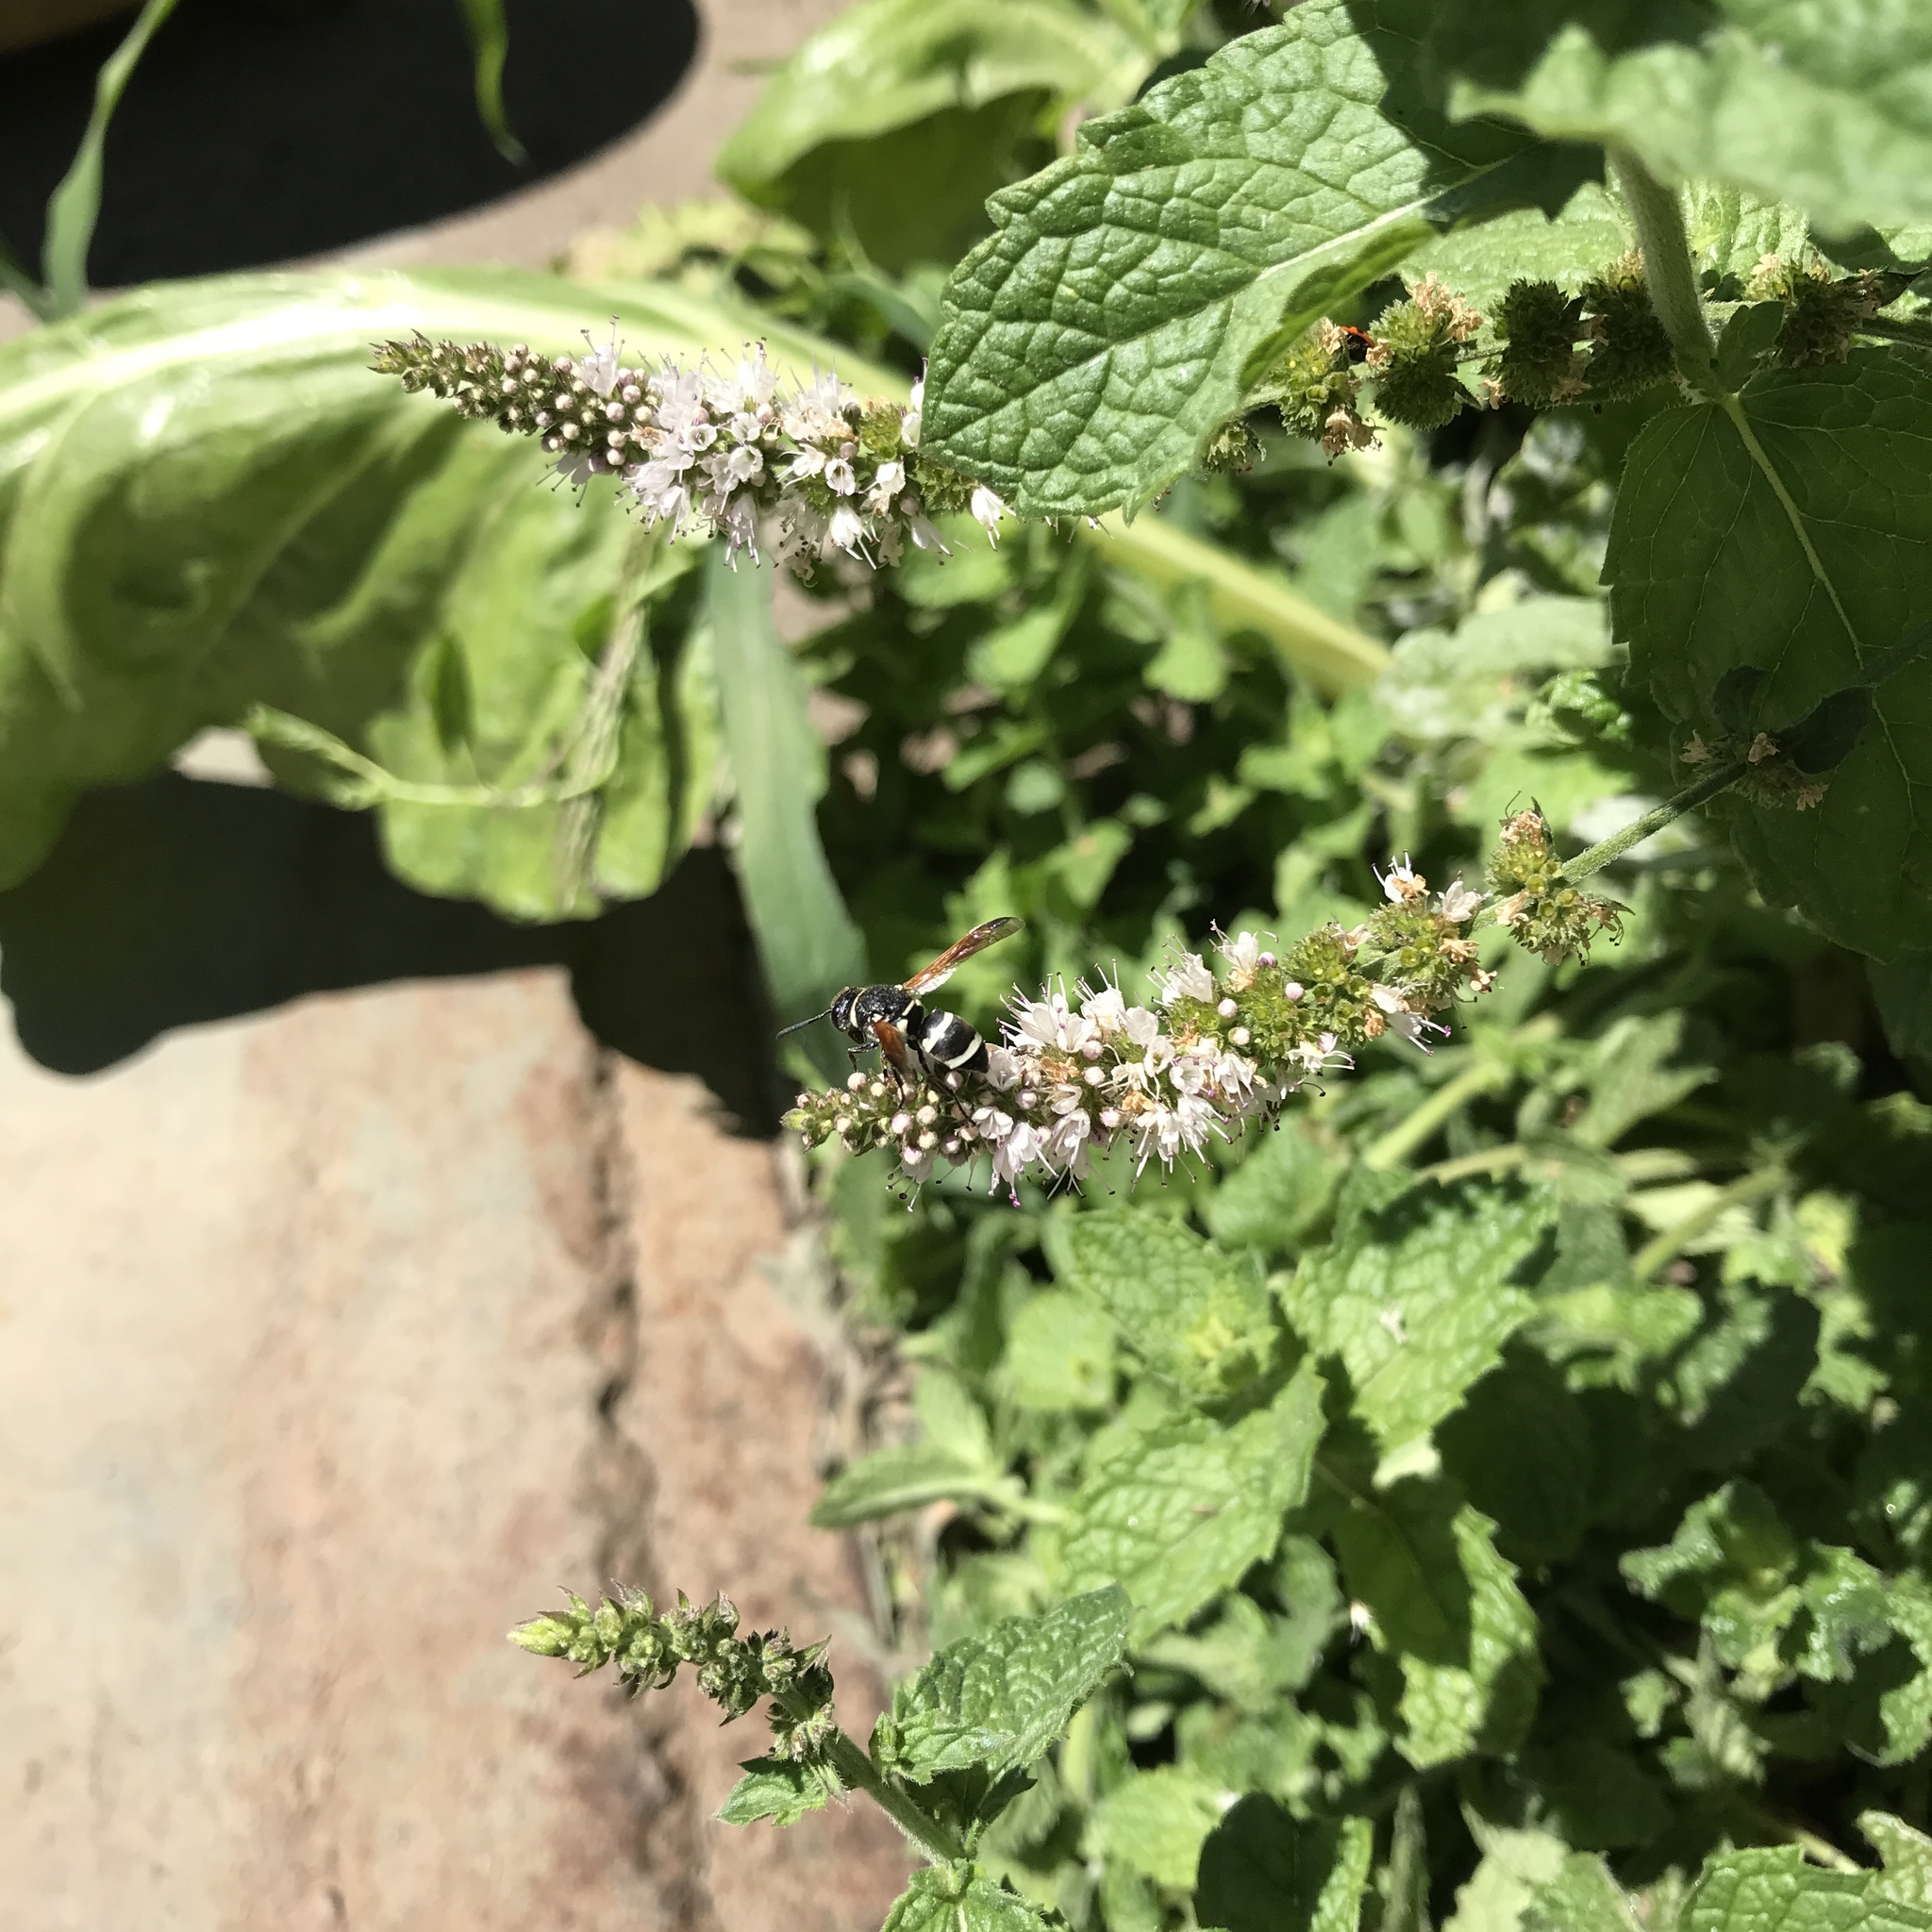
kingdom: Animalia
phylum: Arthropoda
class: Insecta
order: Hymenoptera
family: Eumenidae
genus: Pachodynerus
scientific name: Pachodynerus gayi
